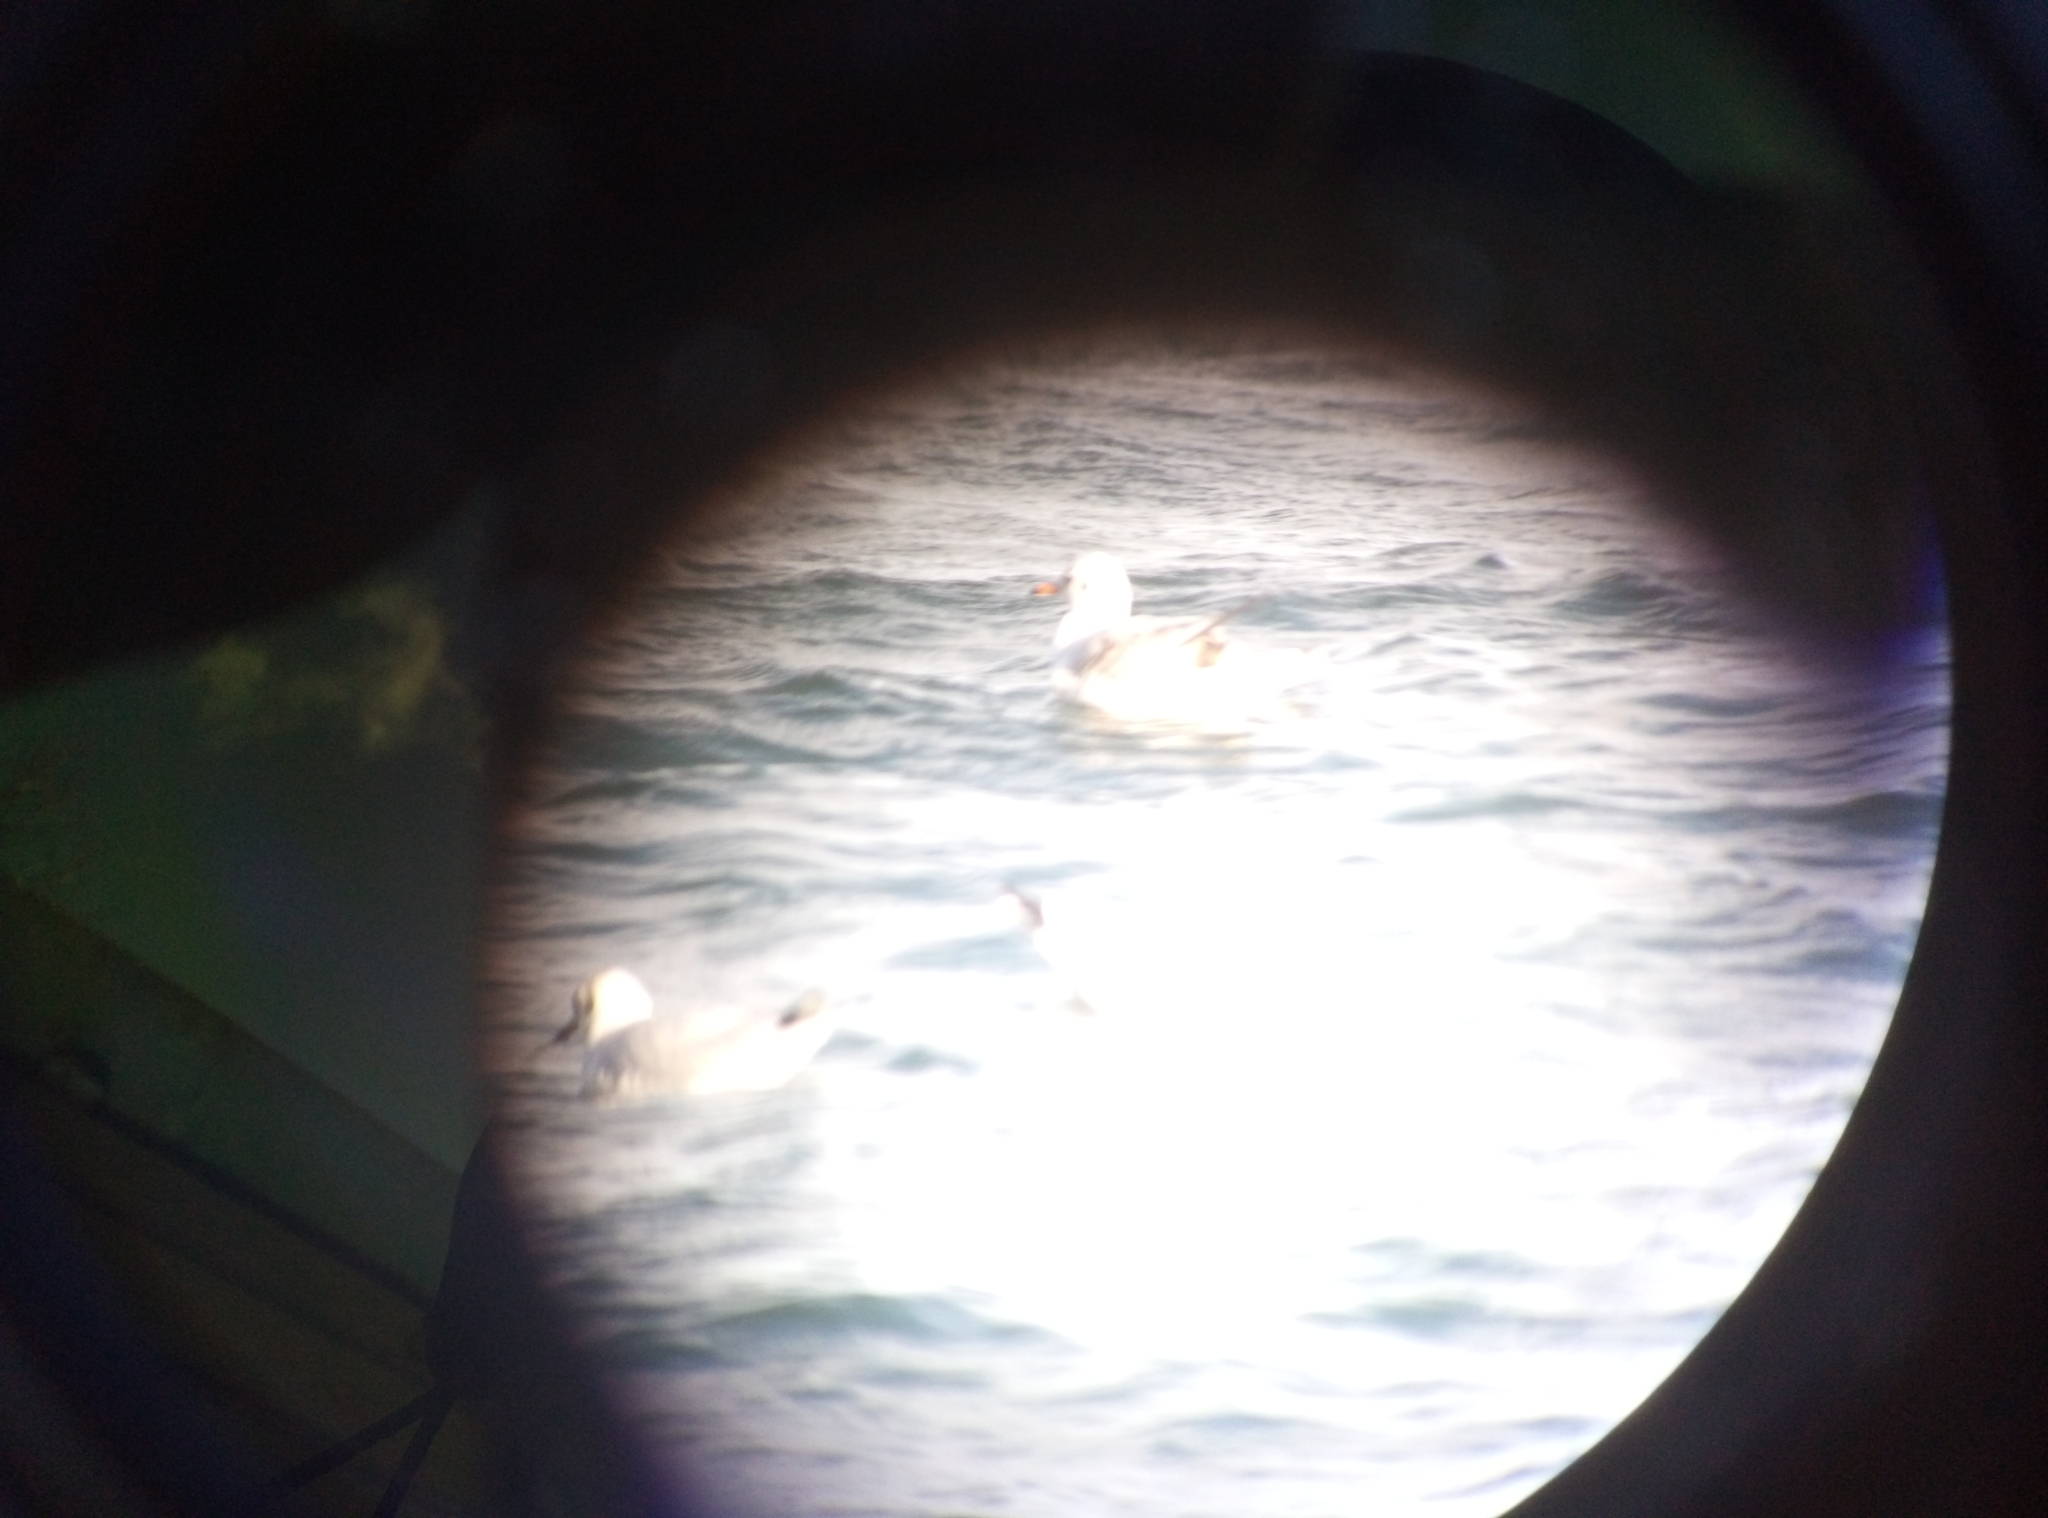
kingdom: Animalia
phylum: Chordata
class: Aves
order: Charadriiformes
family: Laridae
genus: Chroicocephalus
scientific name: Chroicocephalus ridibundus
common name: Black-headed gull
